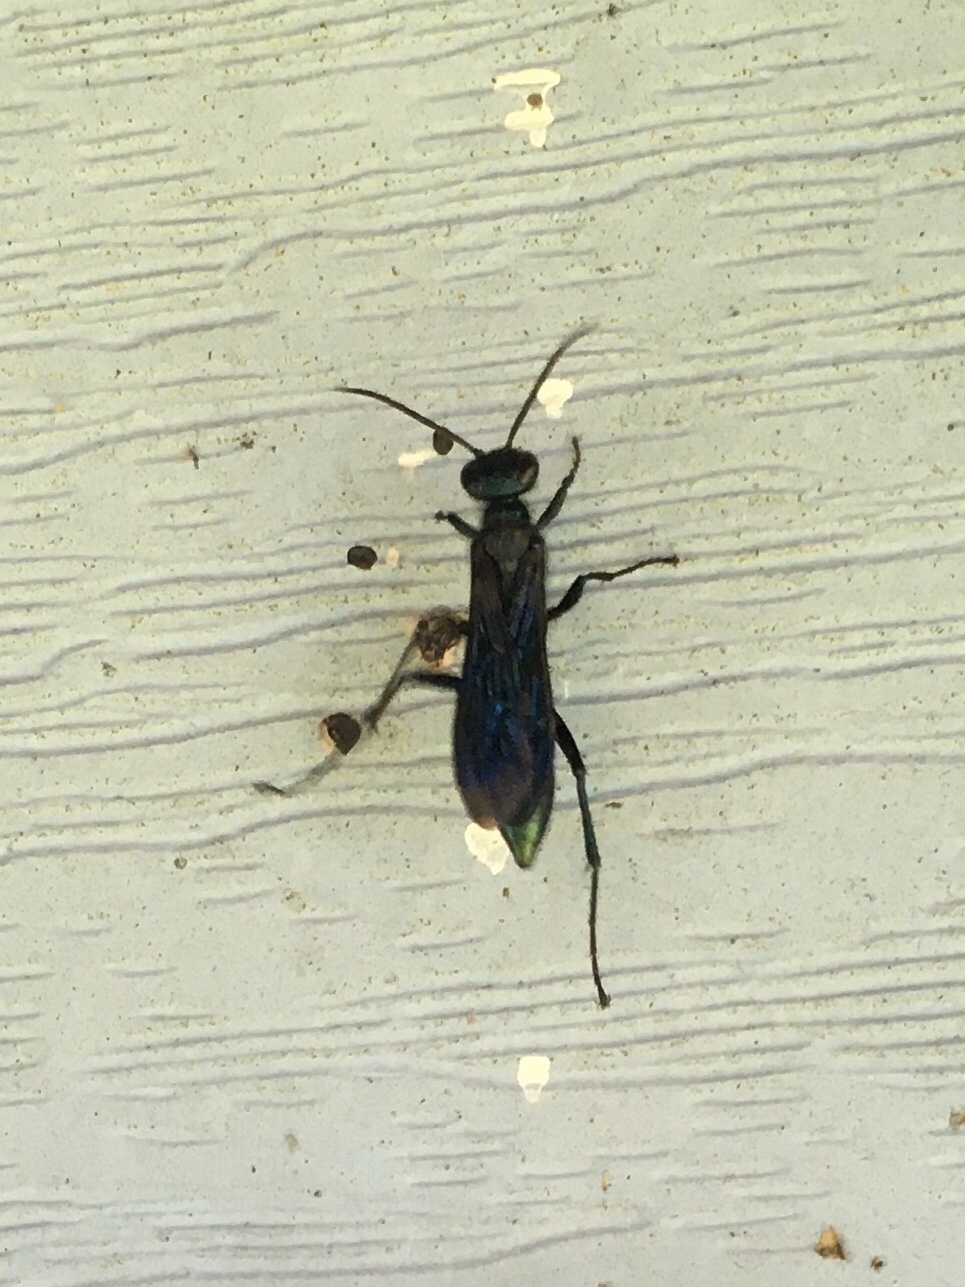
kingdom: Animalia
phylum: Arthropoda
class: Insecta
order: Hymenoptera
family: Sphecidae
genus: Chalybion
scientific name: Chalybion californicum
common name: Mud dauber
